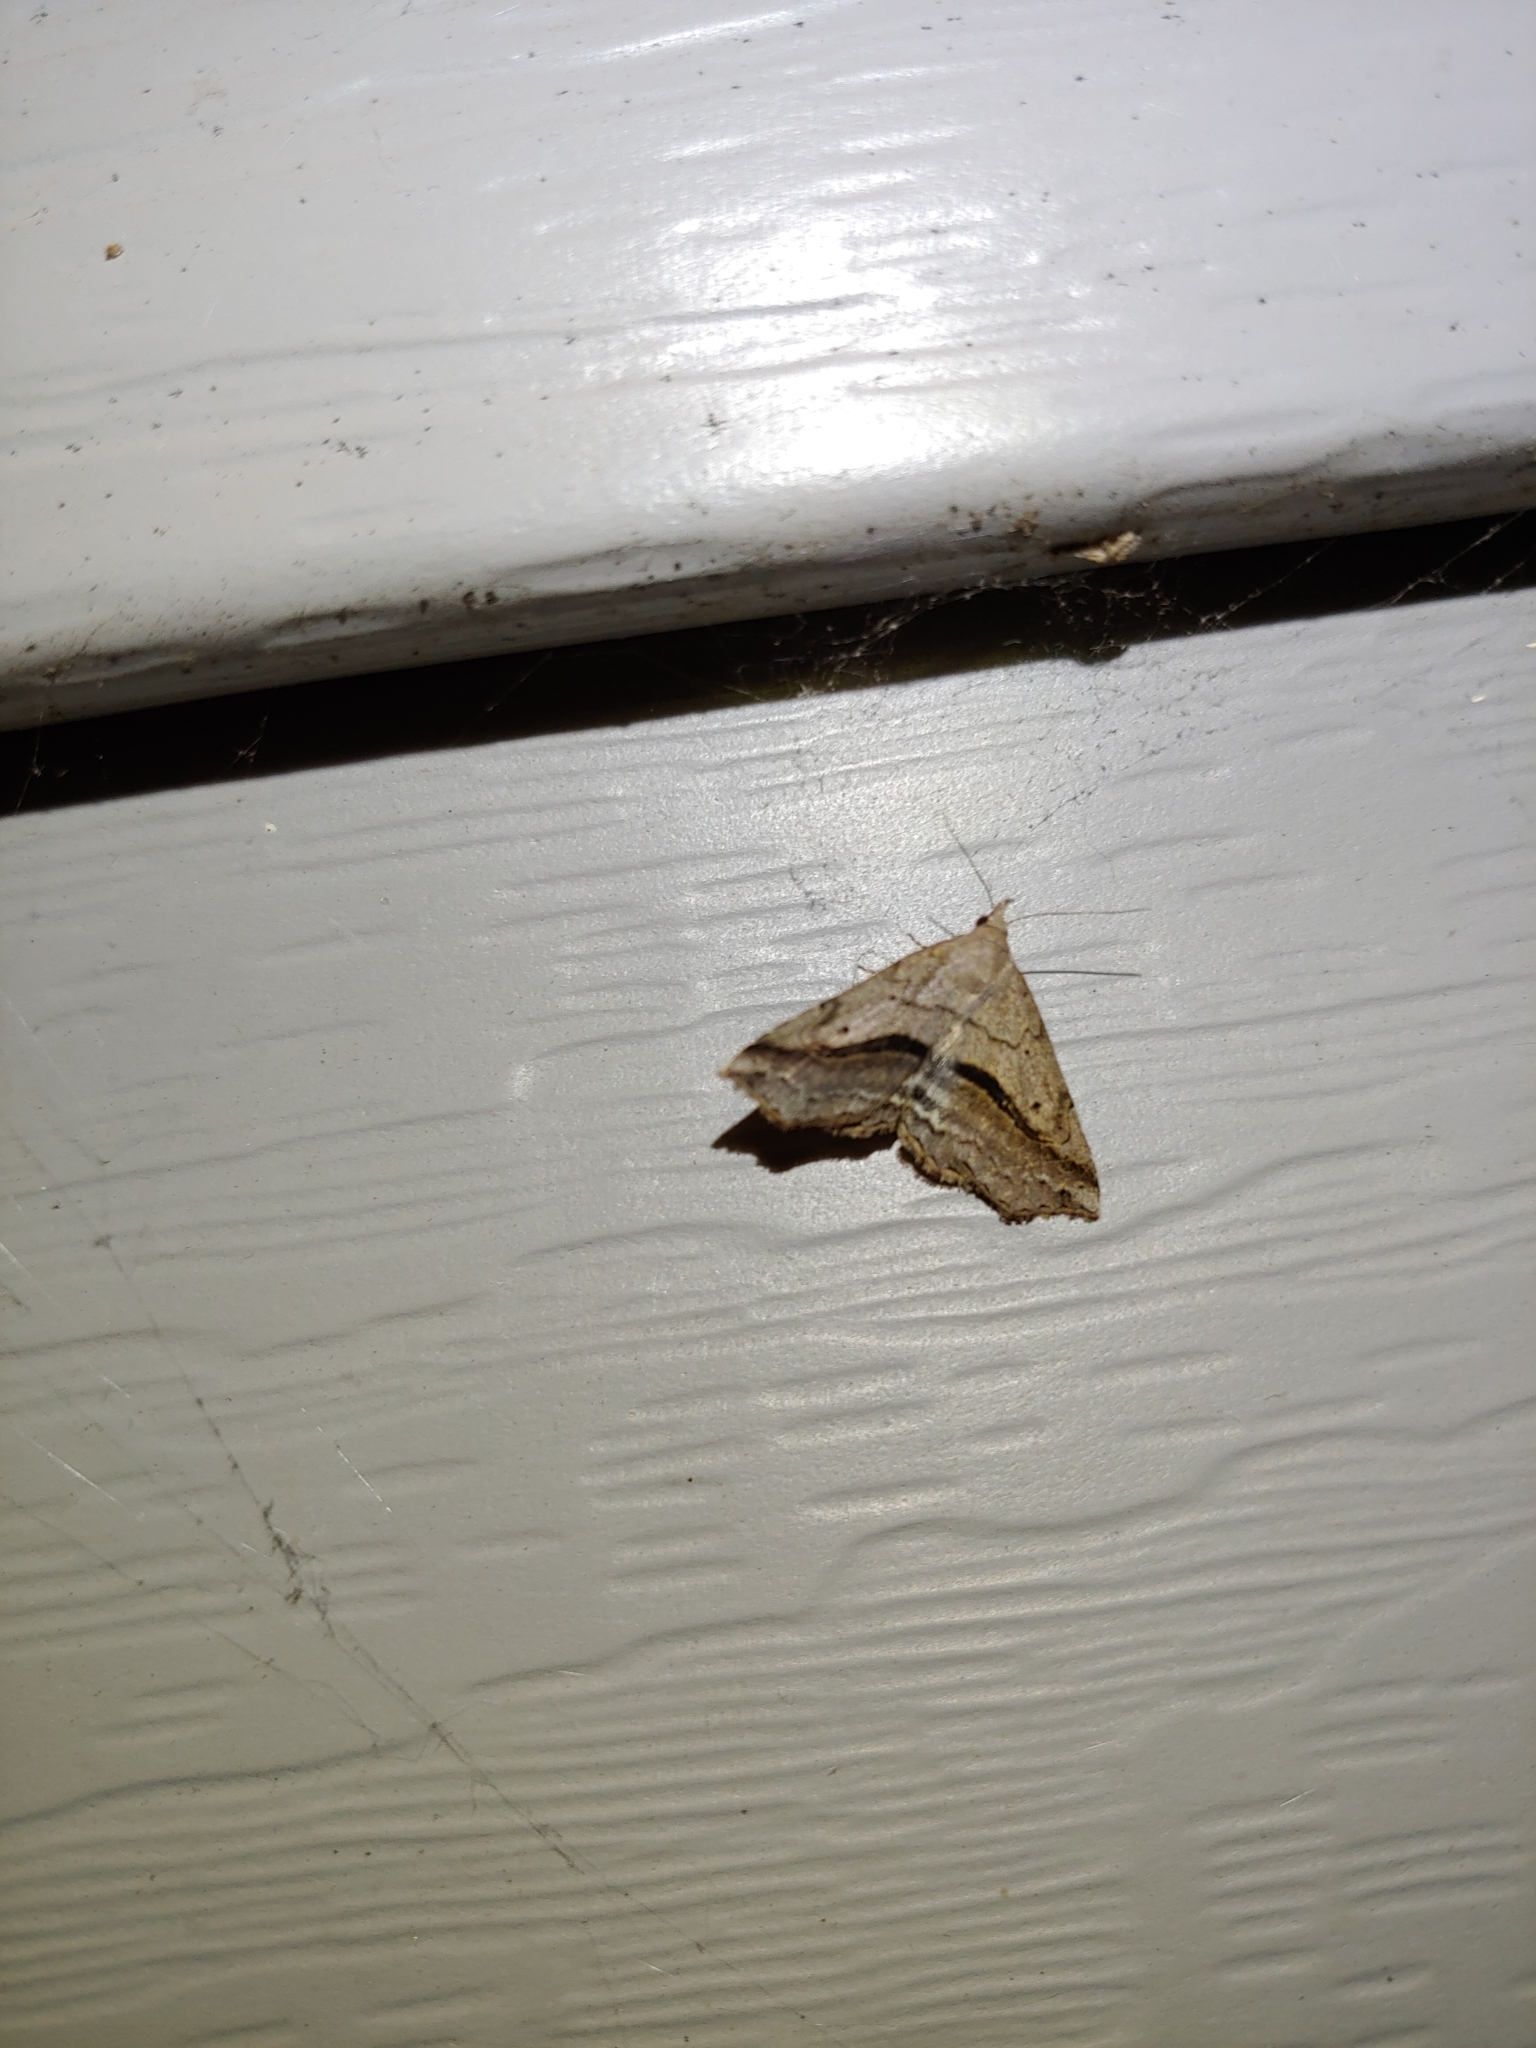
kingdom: Animalia
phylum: Arthropoda
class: Insecta
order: Lepidoptera
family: Erebidae
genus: Spargaloma
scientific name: Spargaloma perditalis
